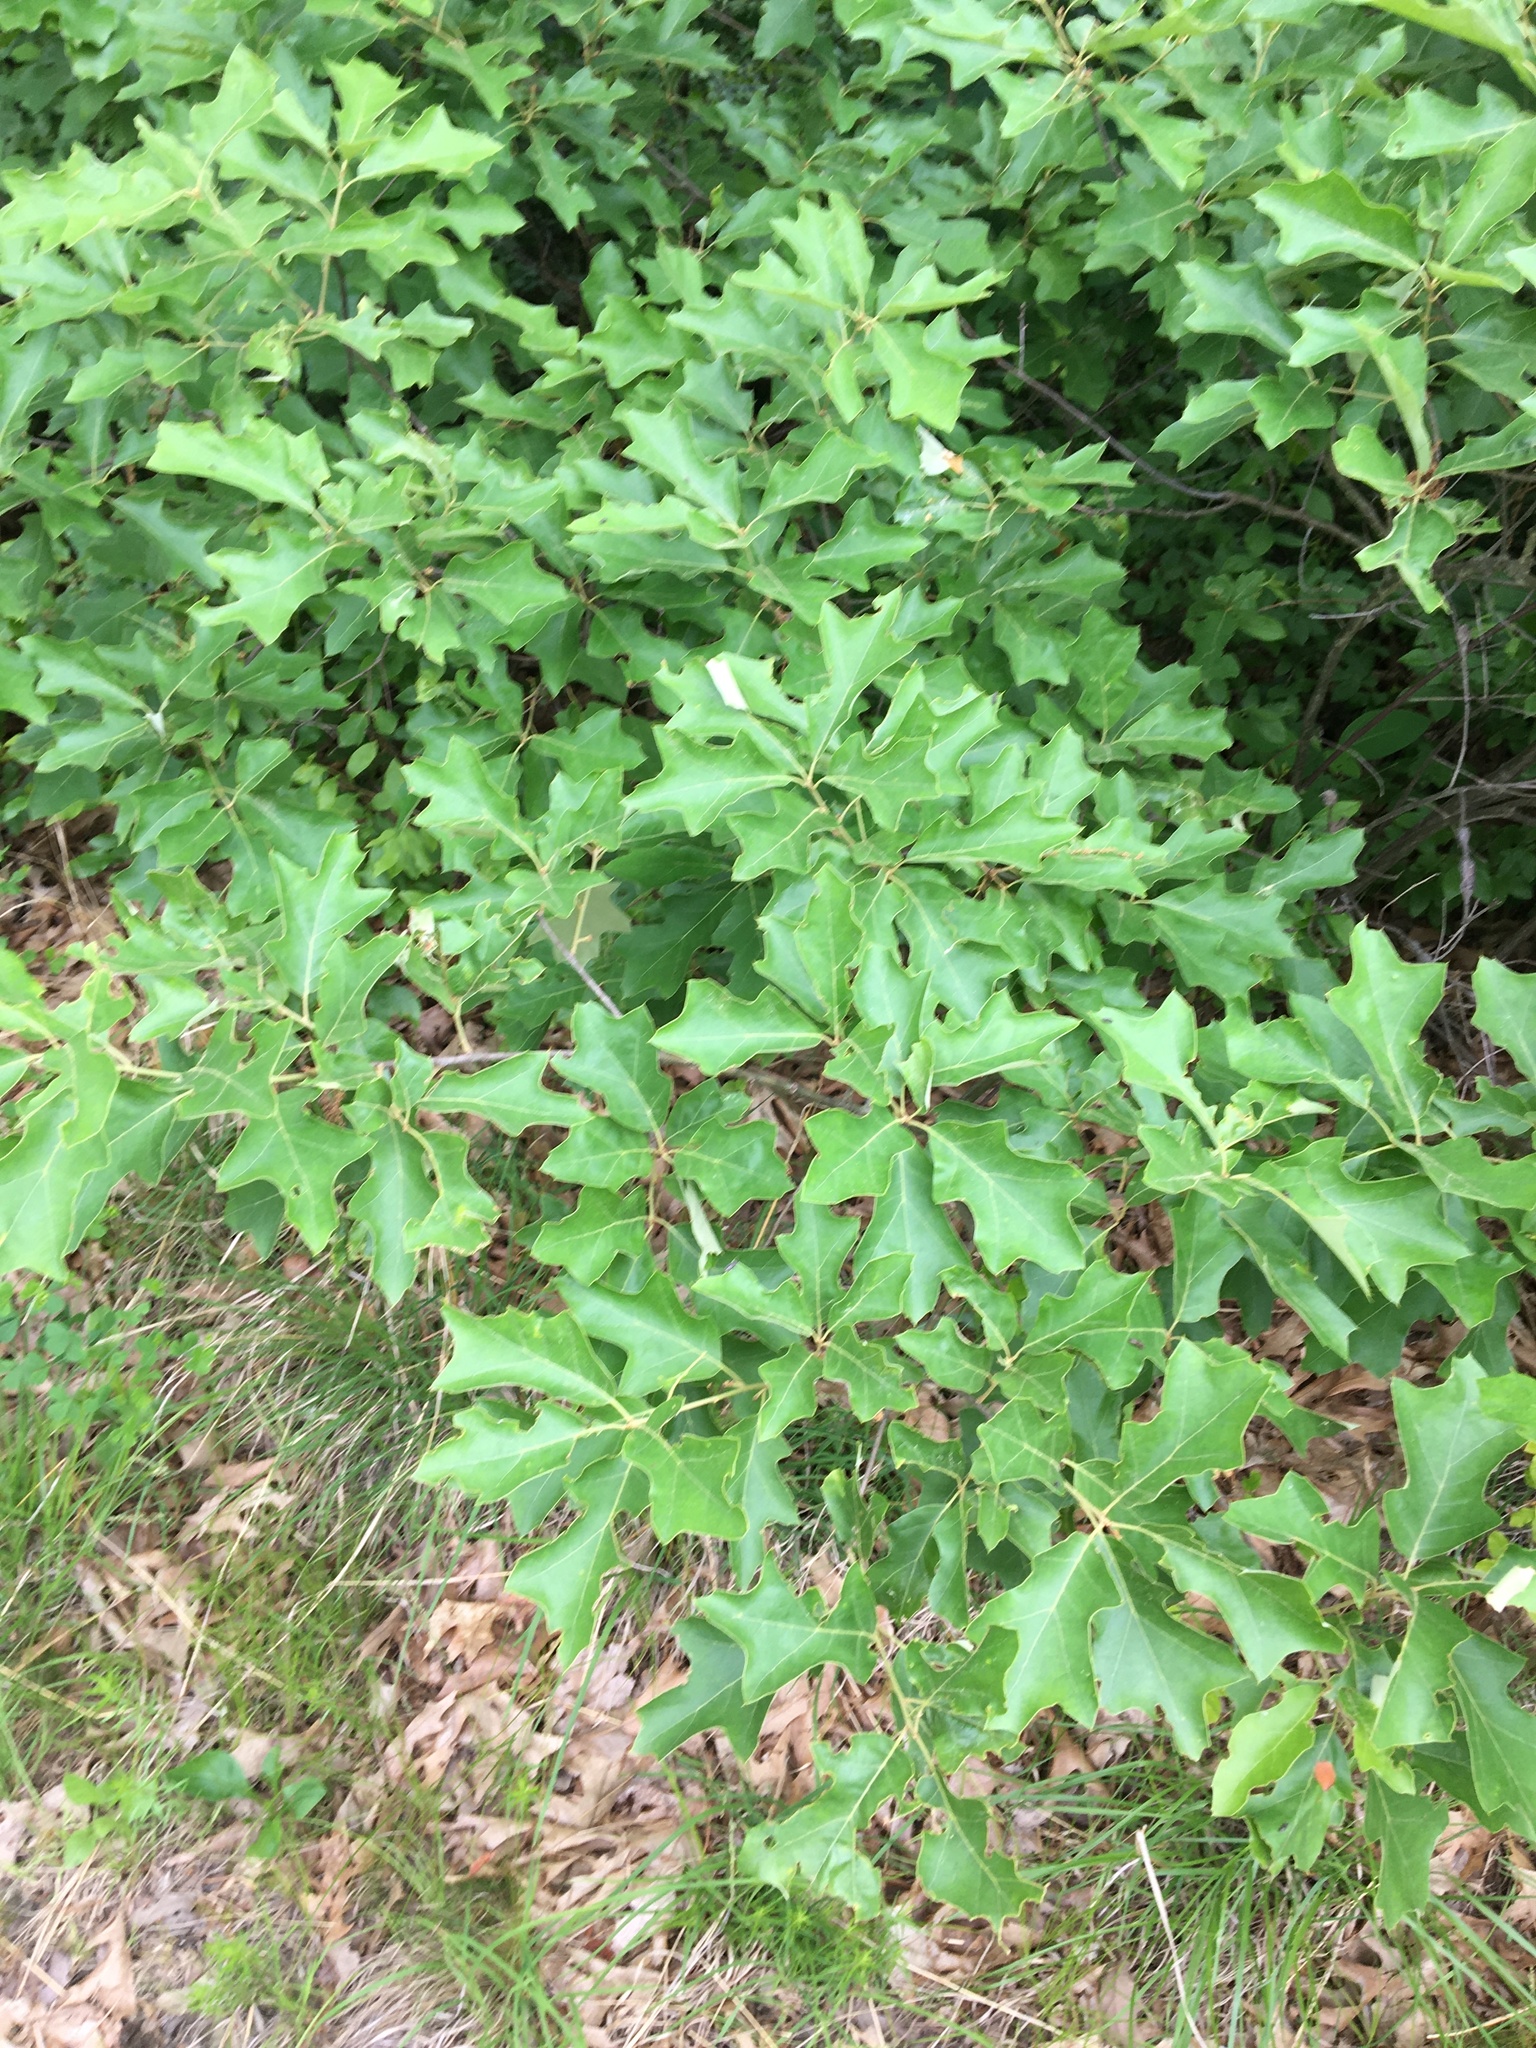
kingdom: Plantae
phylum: Tracheophyta
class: Magnoliopsida
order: Fagales
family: Fagaceae
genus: Quercus
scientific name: Quercus ilicifolia
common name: Bear oak
